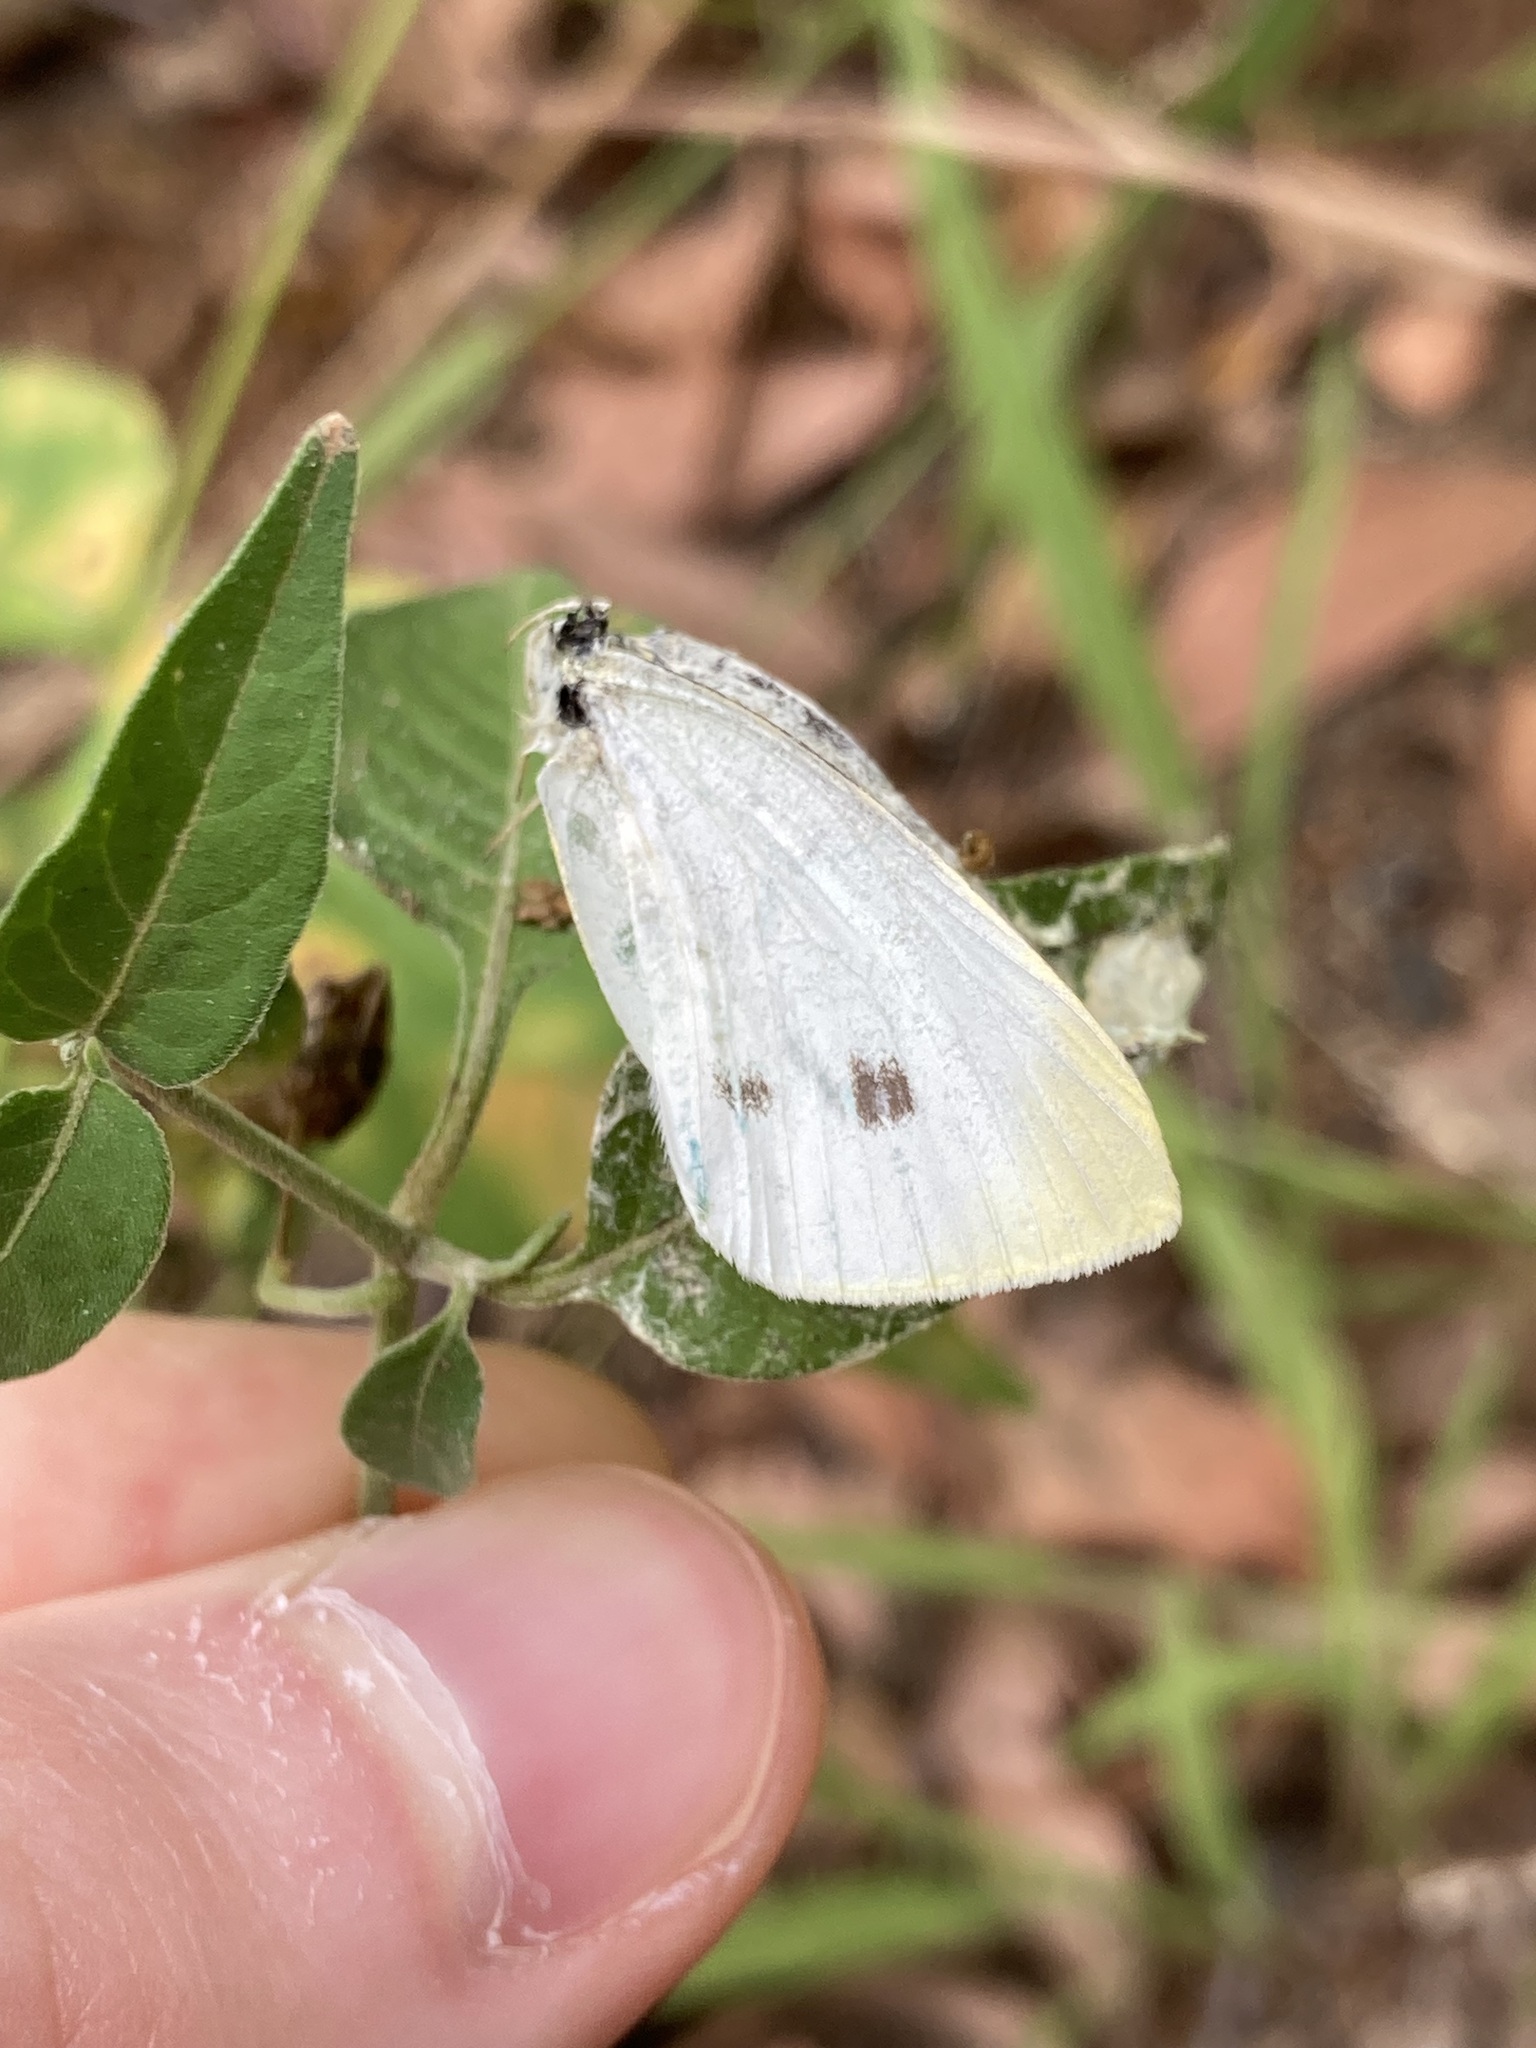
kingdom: Animalia
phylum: Arthropoda
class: Insecta
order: Lepidoptera
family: Pieridae
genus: Pieris
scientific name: Pieris rapae
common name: Small white
